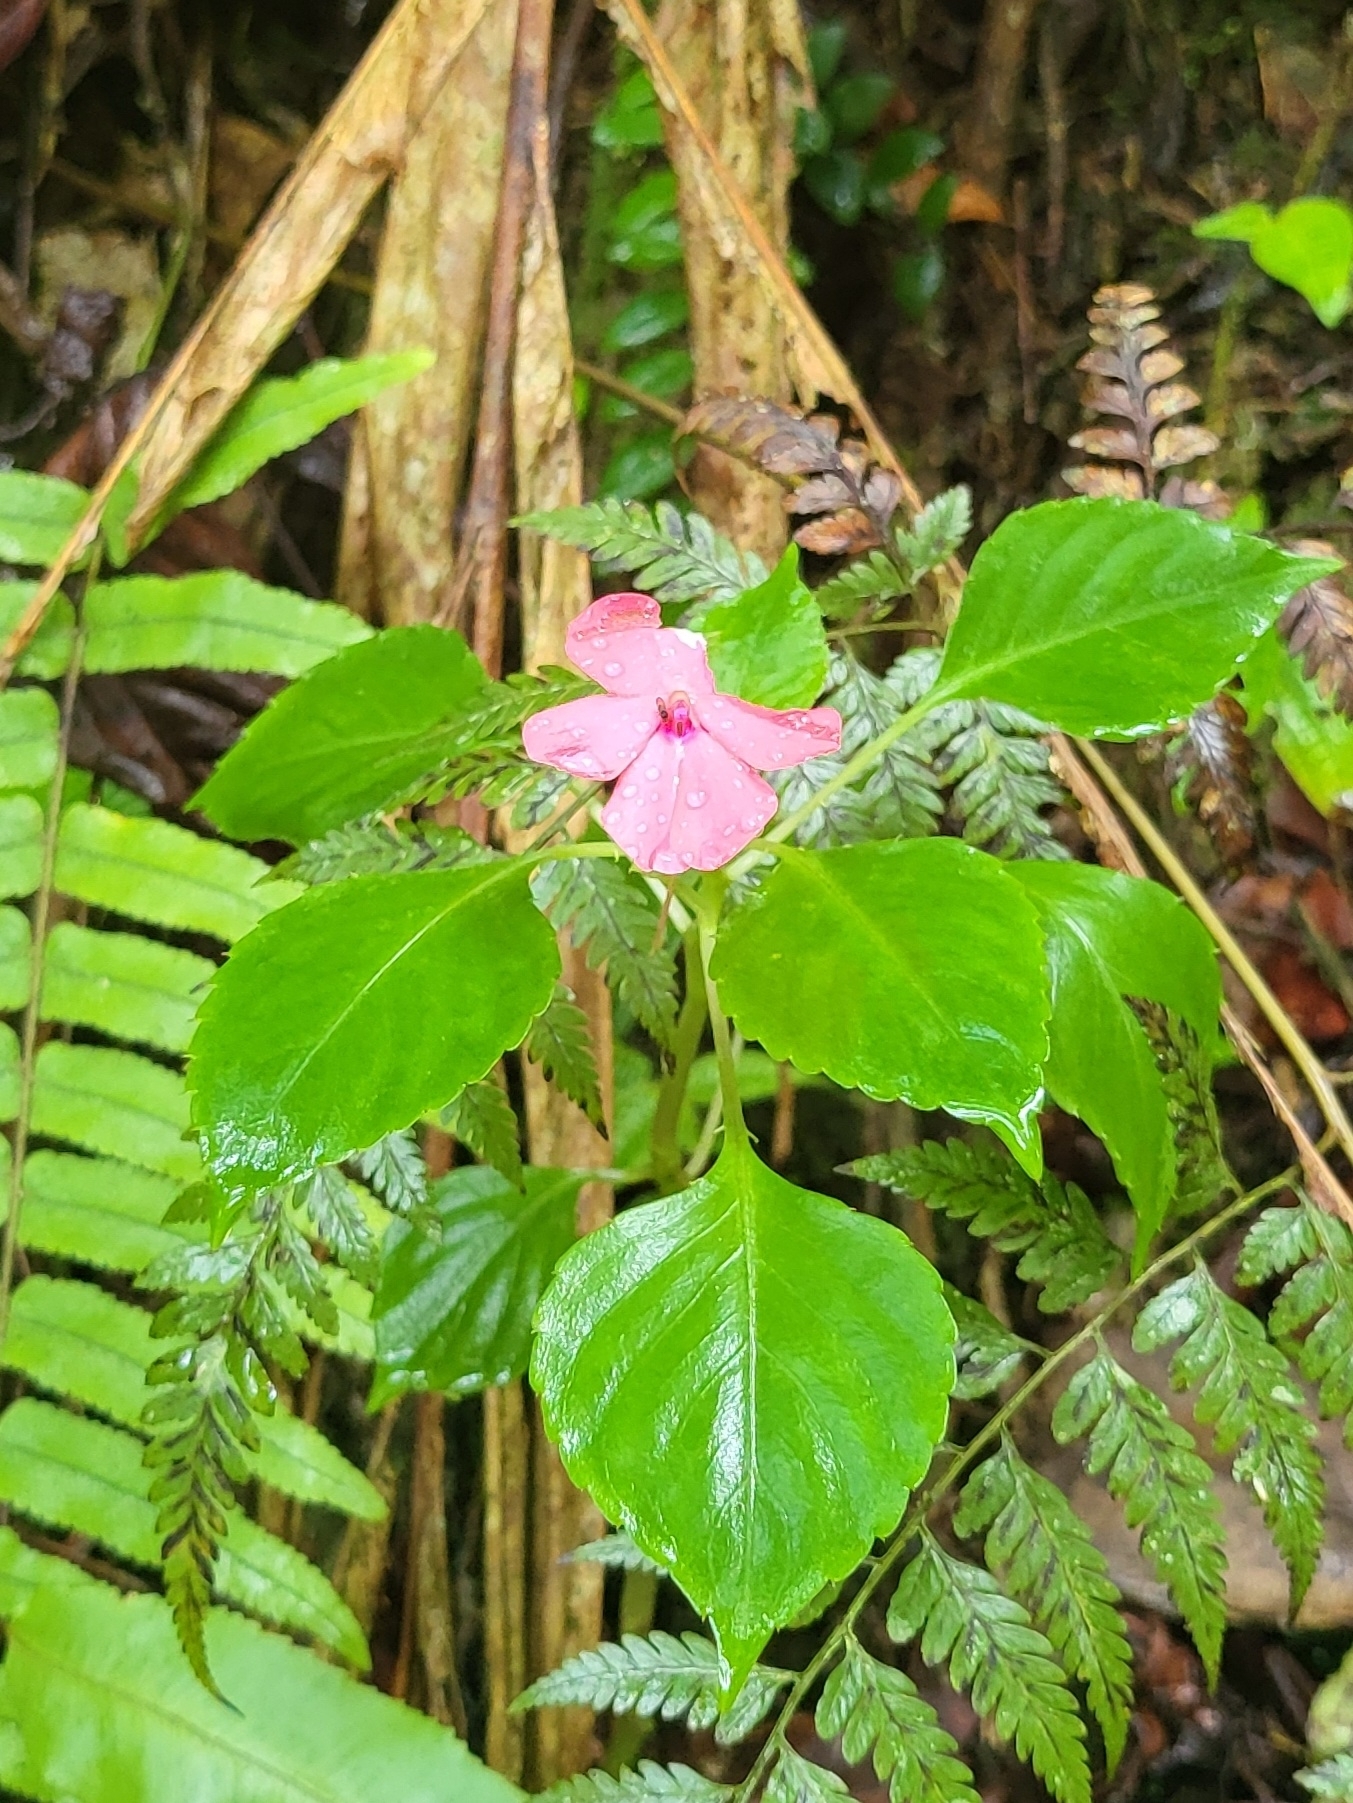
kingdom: Plantae
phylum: Tracheophyta
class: Magnoliopsida
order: Ericales
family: Balsaminaceae
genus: Impatiens
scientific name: Impatiens walleriana
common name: Buzzy lizzy
